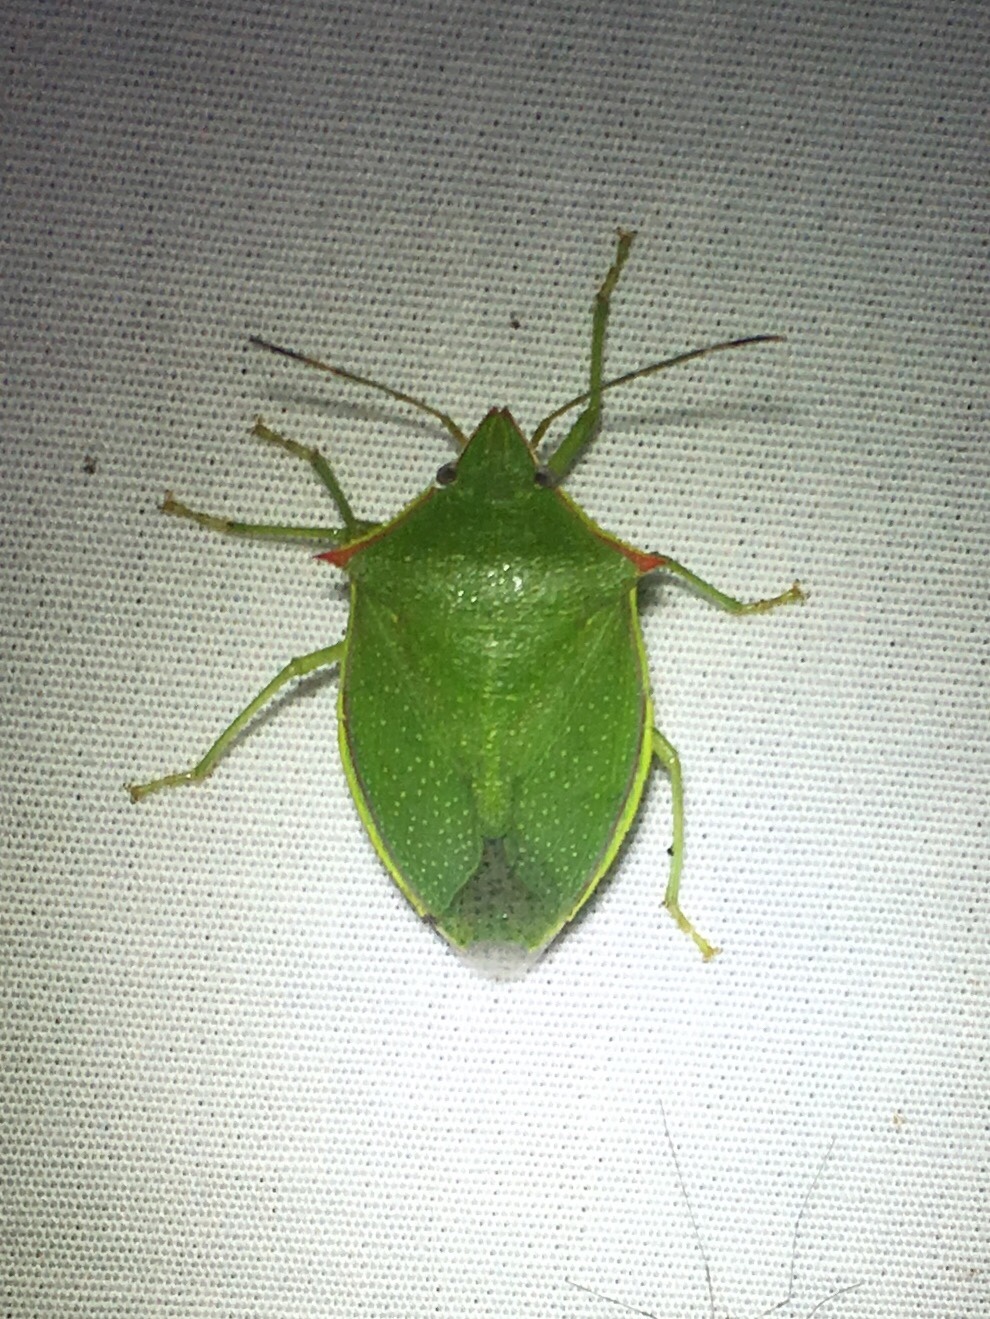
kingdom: Animalia
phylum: Arthropoda
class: Insecta
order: Hemiptera
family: Pentatomidae
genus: Loxa
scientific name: Loxa flavicollis
